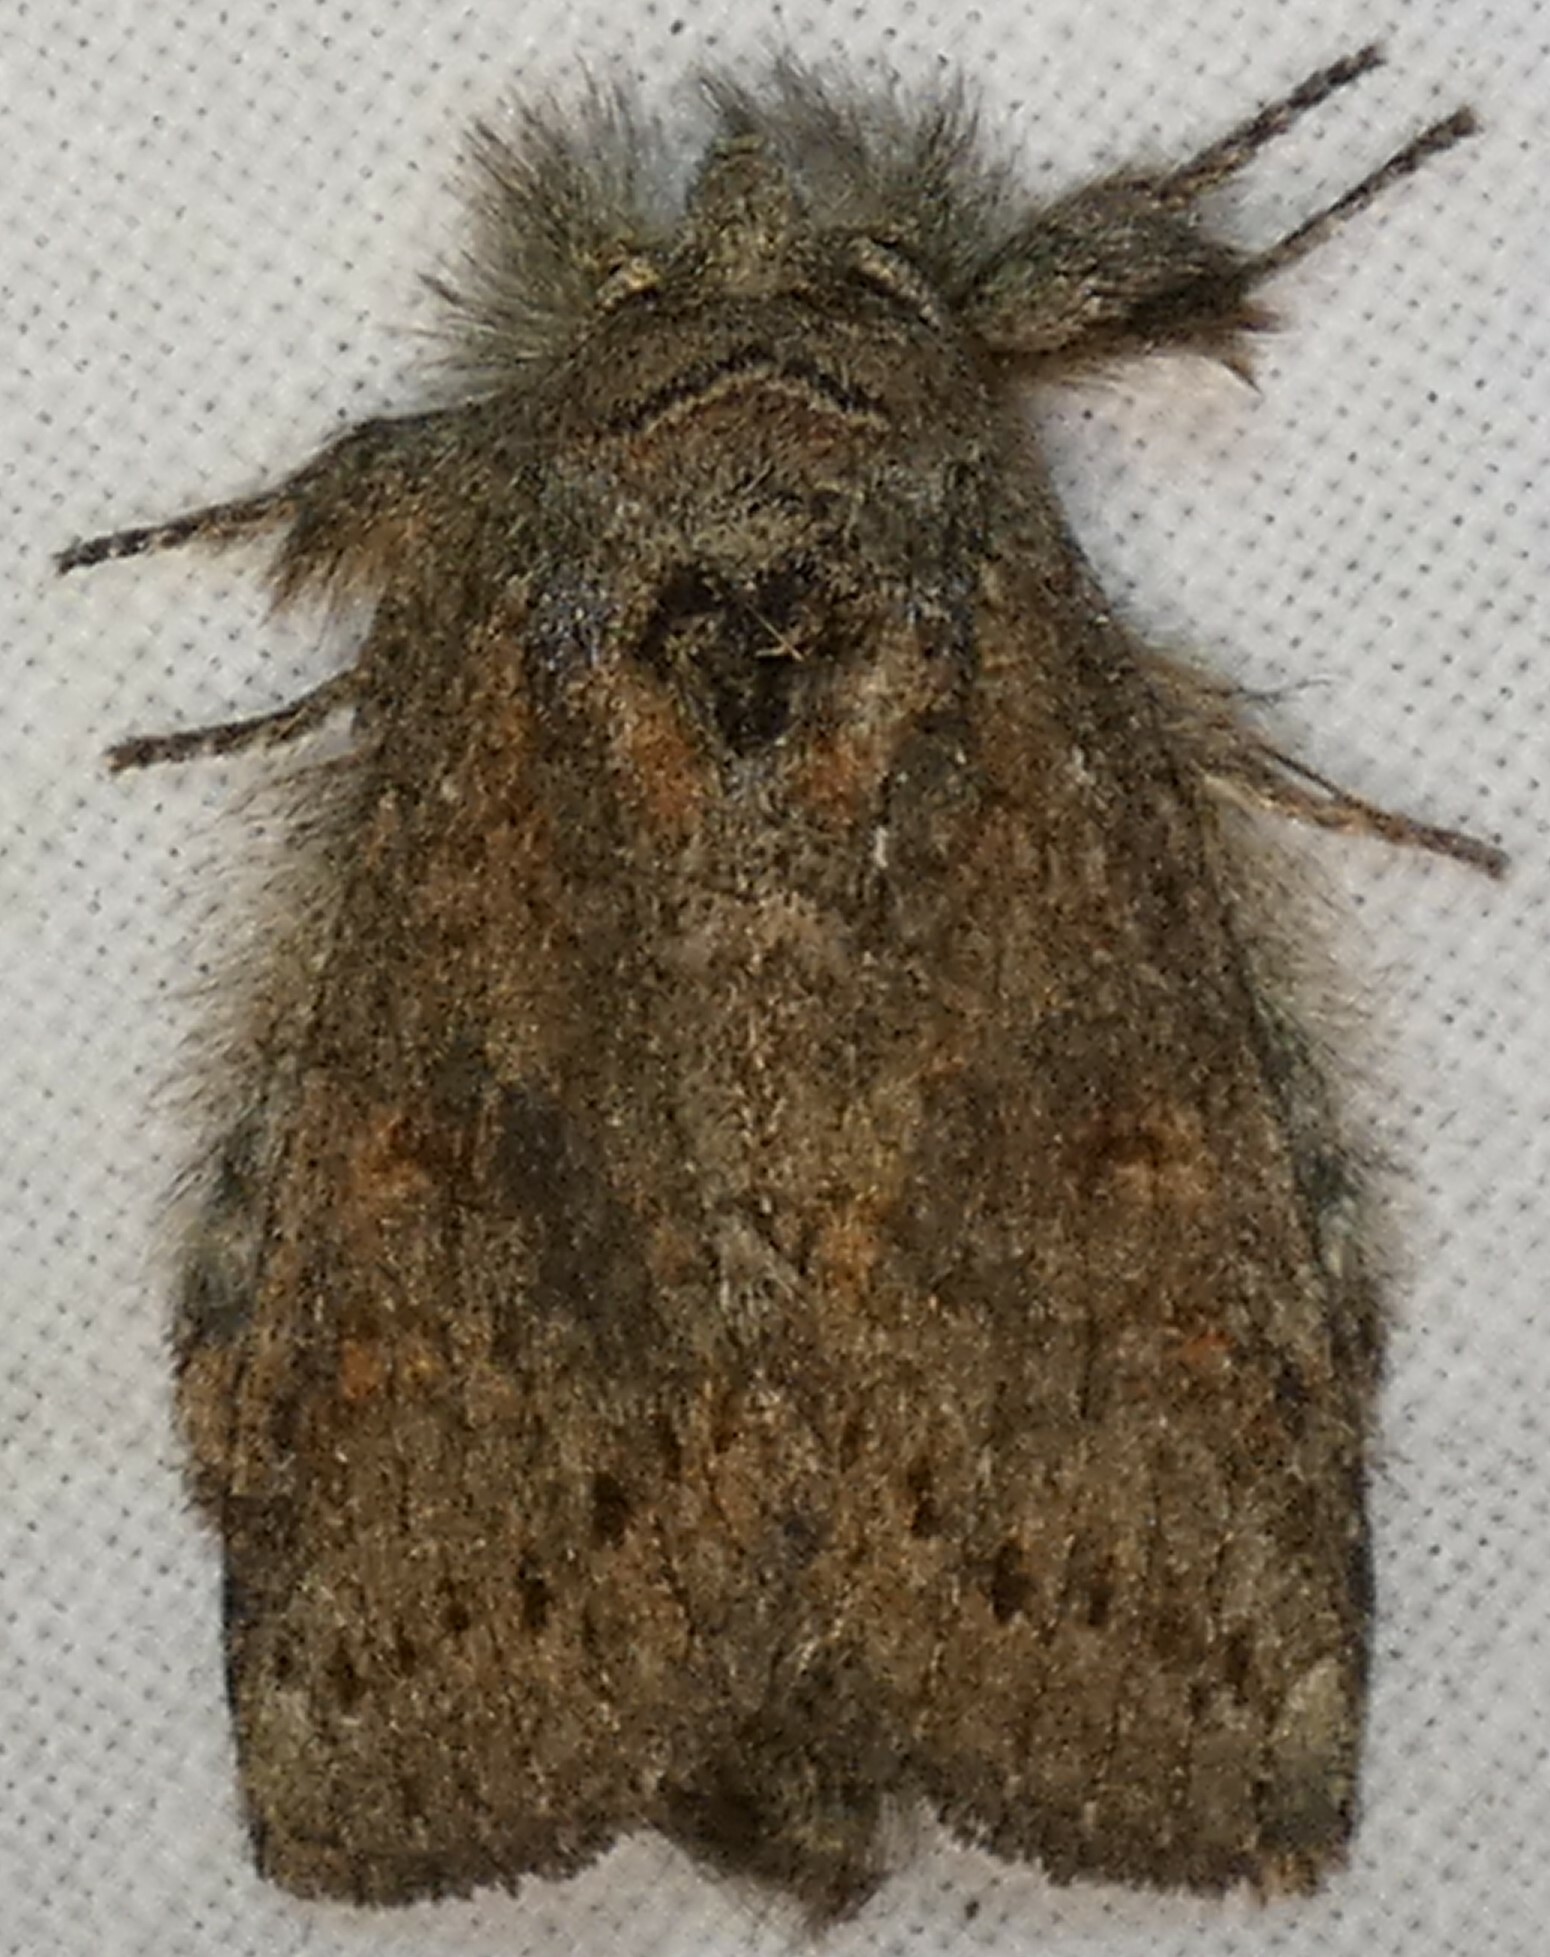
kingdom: Animalia
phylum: Arthropoda
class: Insecta
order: Lepidoptera
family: Notodontidae
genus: Disphragis
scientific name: Disphragis Cecrita guttivitta
